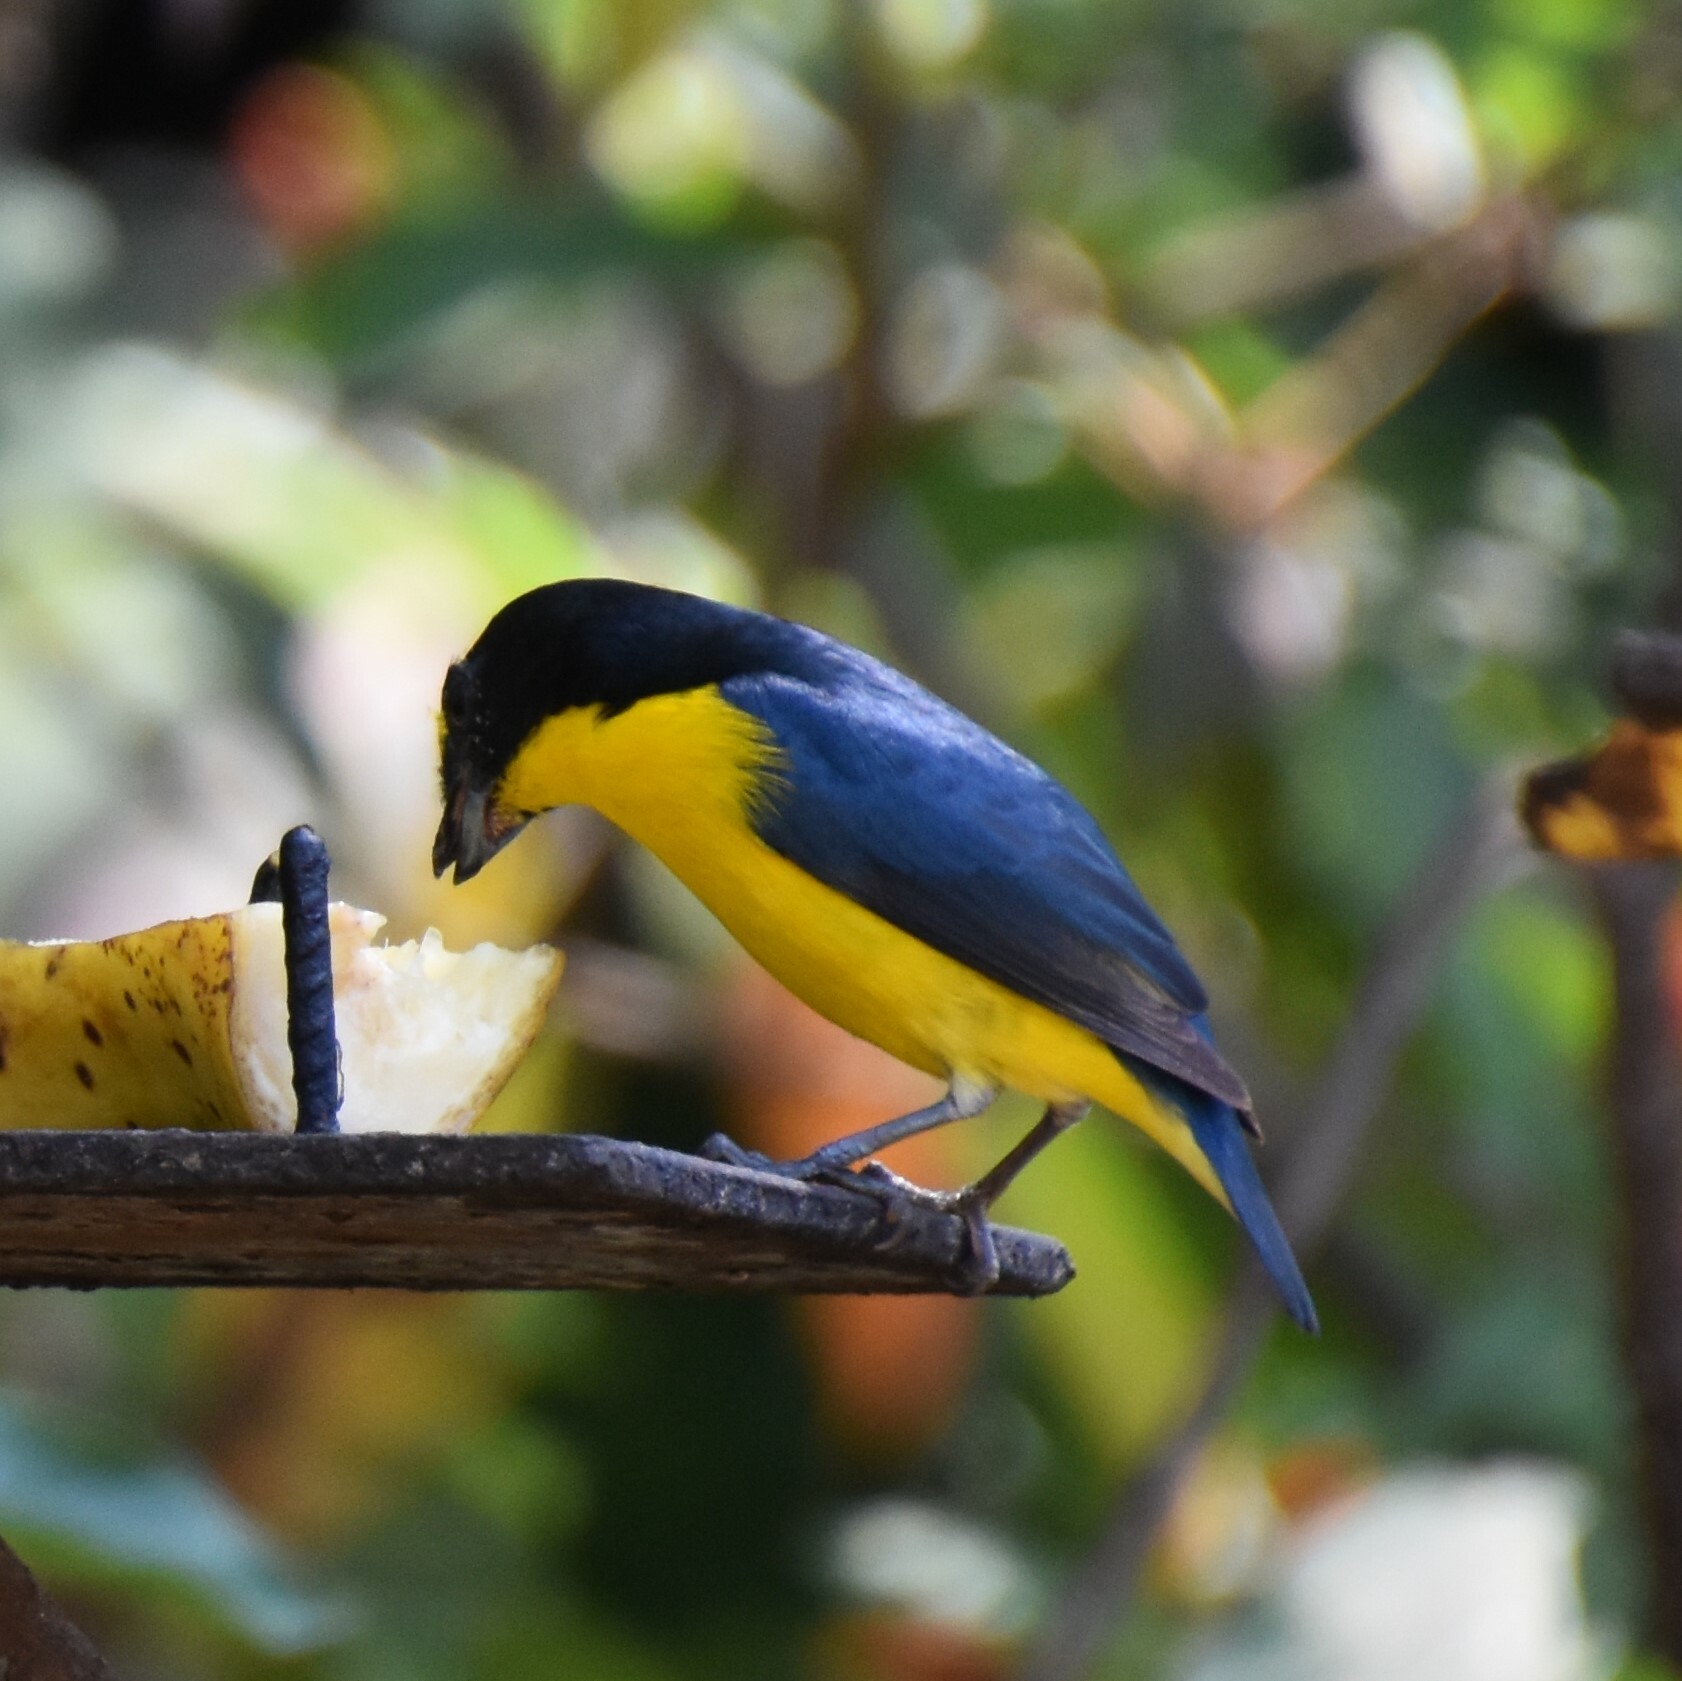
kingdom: Animalia
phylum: Chordata
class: Aves
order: Passeriformes
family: Fringillidae
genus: Euphonia
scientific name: Euphonia hirundinacea
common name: Yellow-throated euphonia
